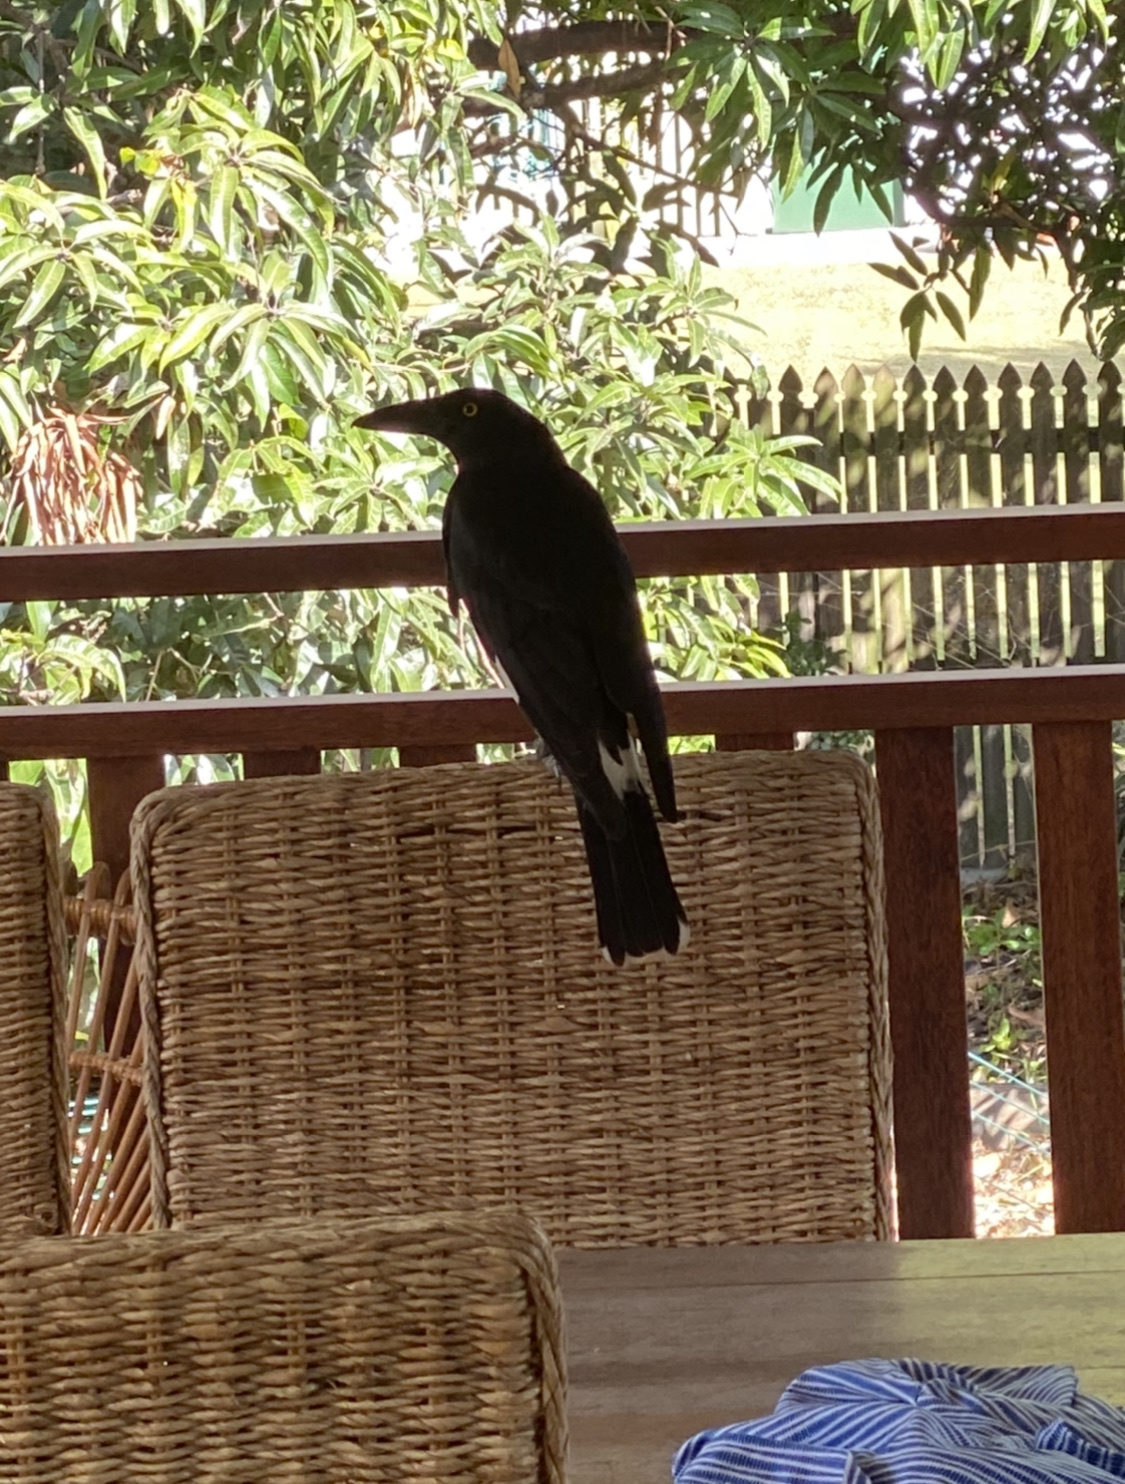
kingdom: Animalia
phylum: Chordata
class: Aves
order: Passeriformes
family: Cracticidae
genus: Strepera
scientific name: Strepera graculina
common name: Pied currawong
